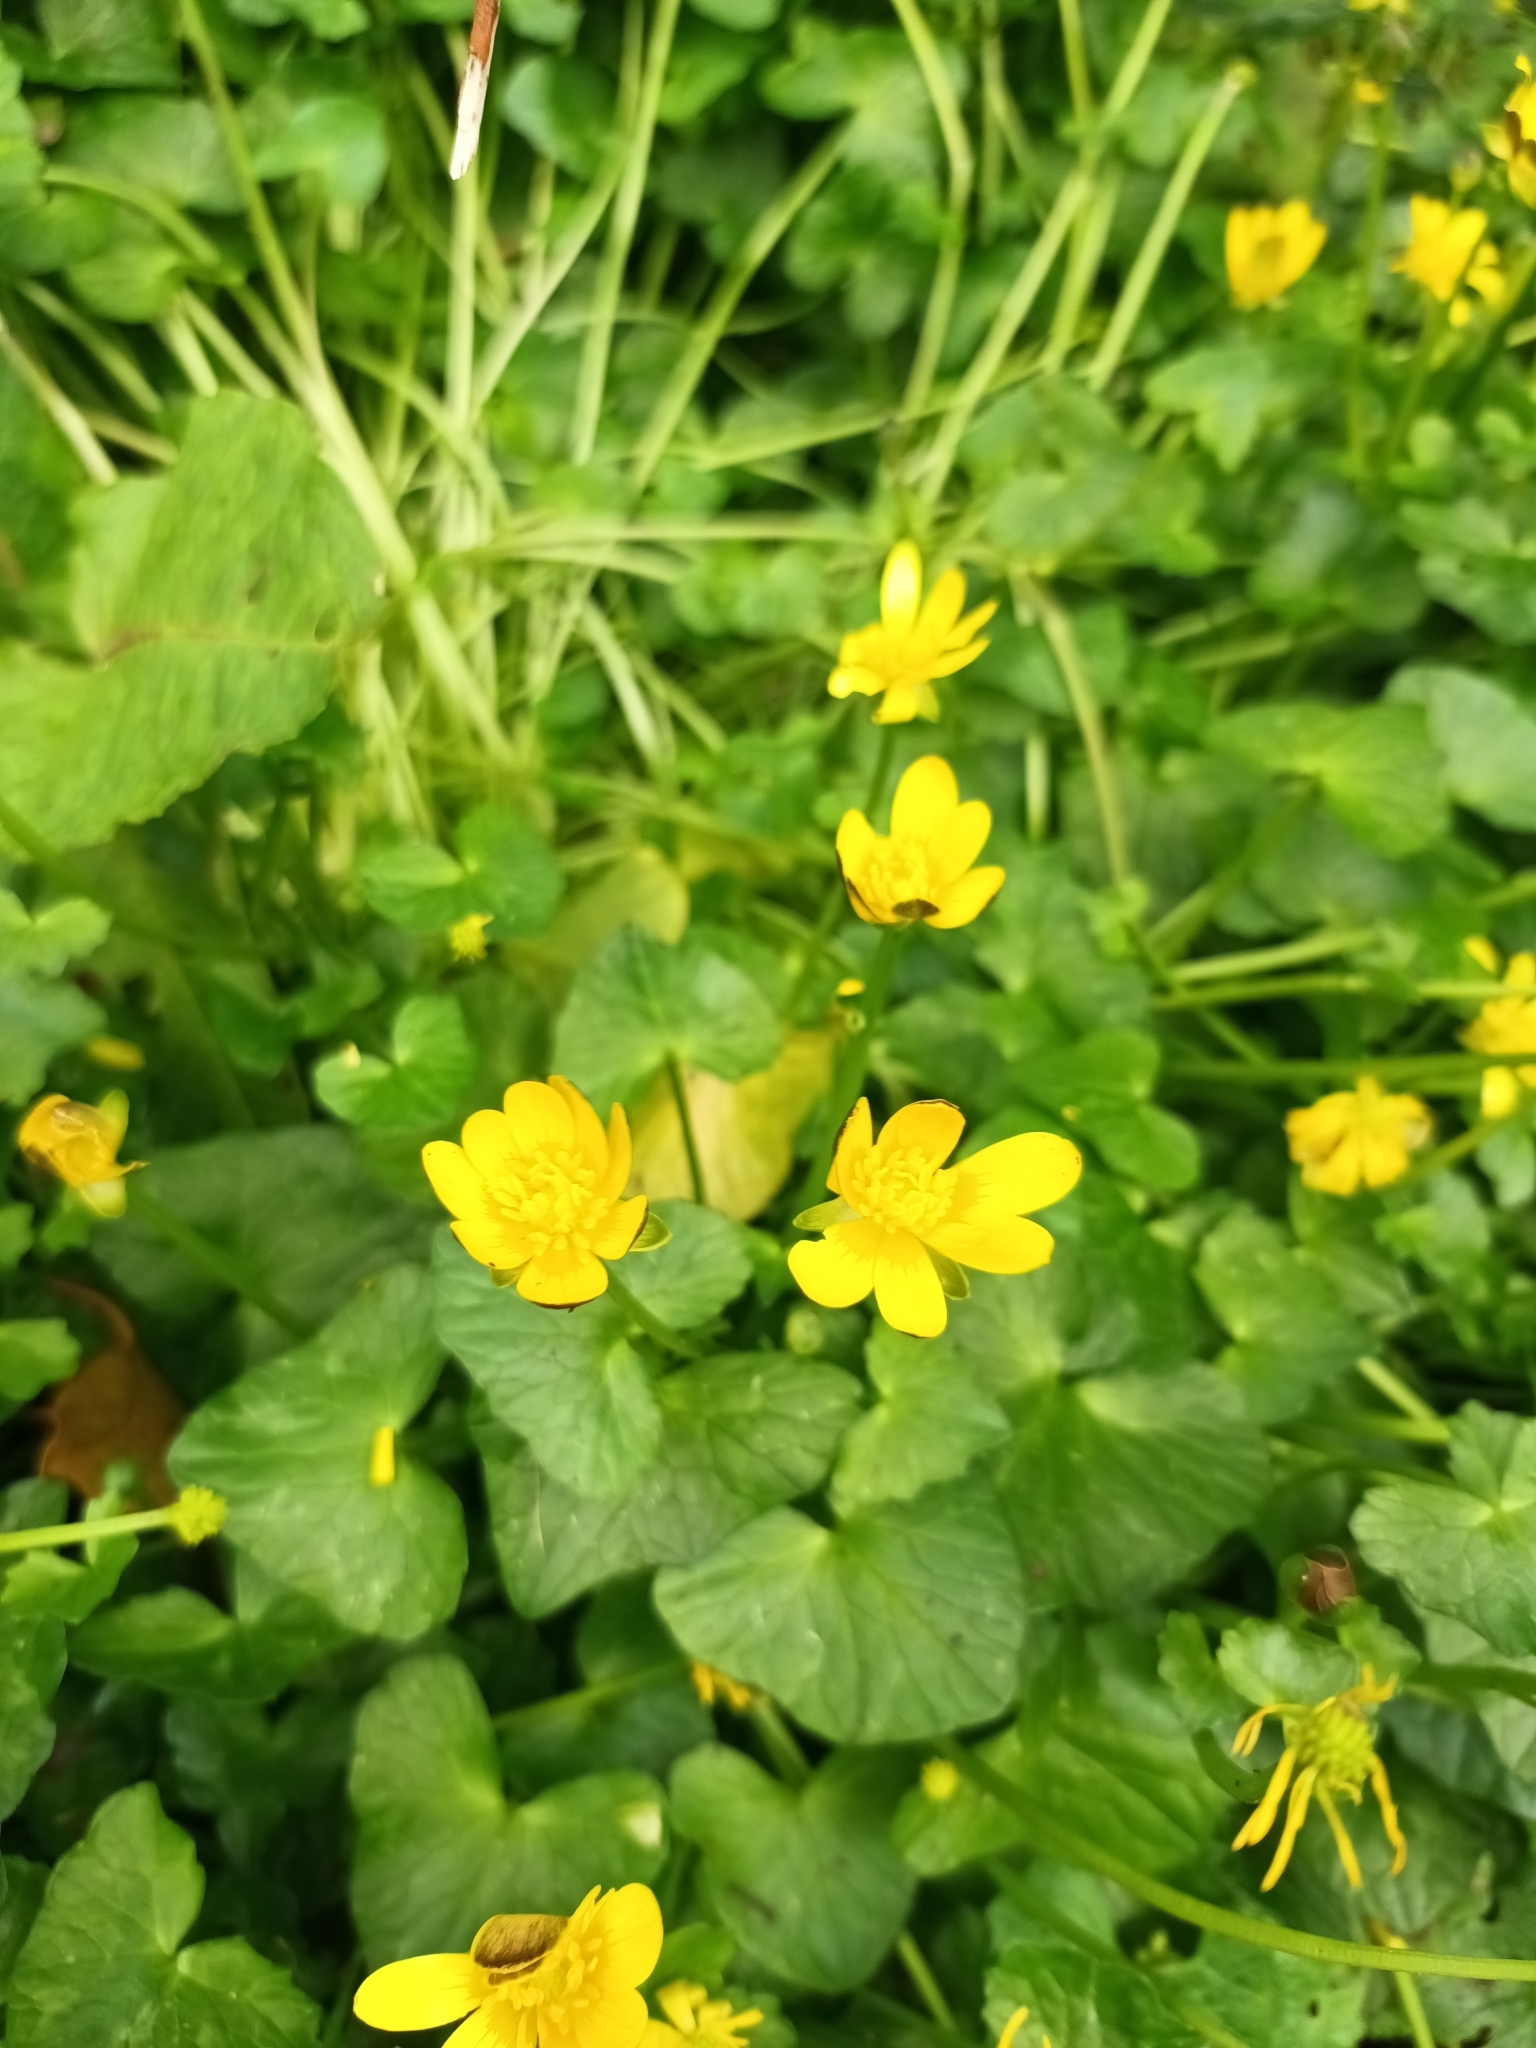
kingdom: Plantae
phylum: Tracheophyta
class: Magnoliopsida
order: Ranunculales
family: Ranunculaceae
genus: Ficaria
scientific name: Ficaria verna
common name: Lesser celandine
